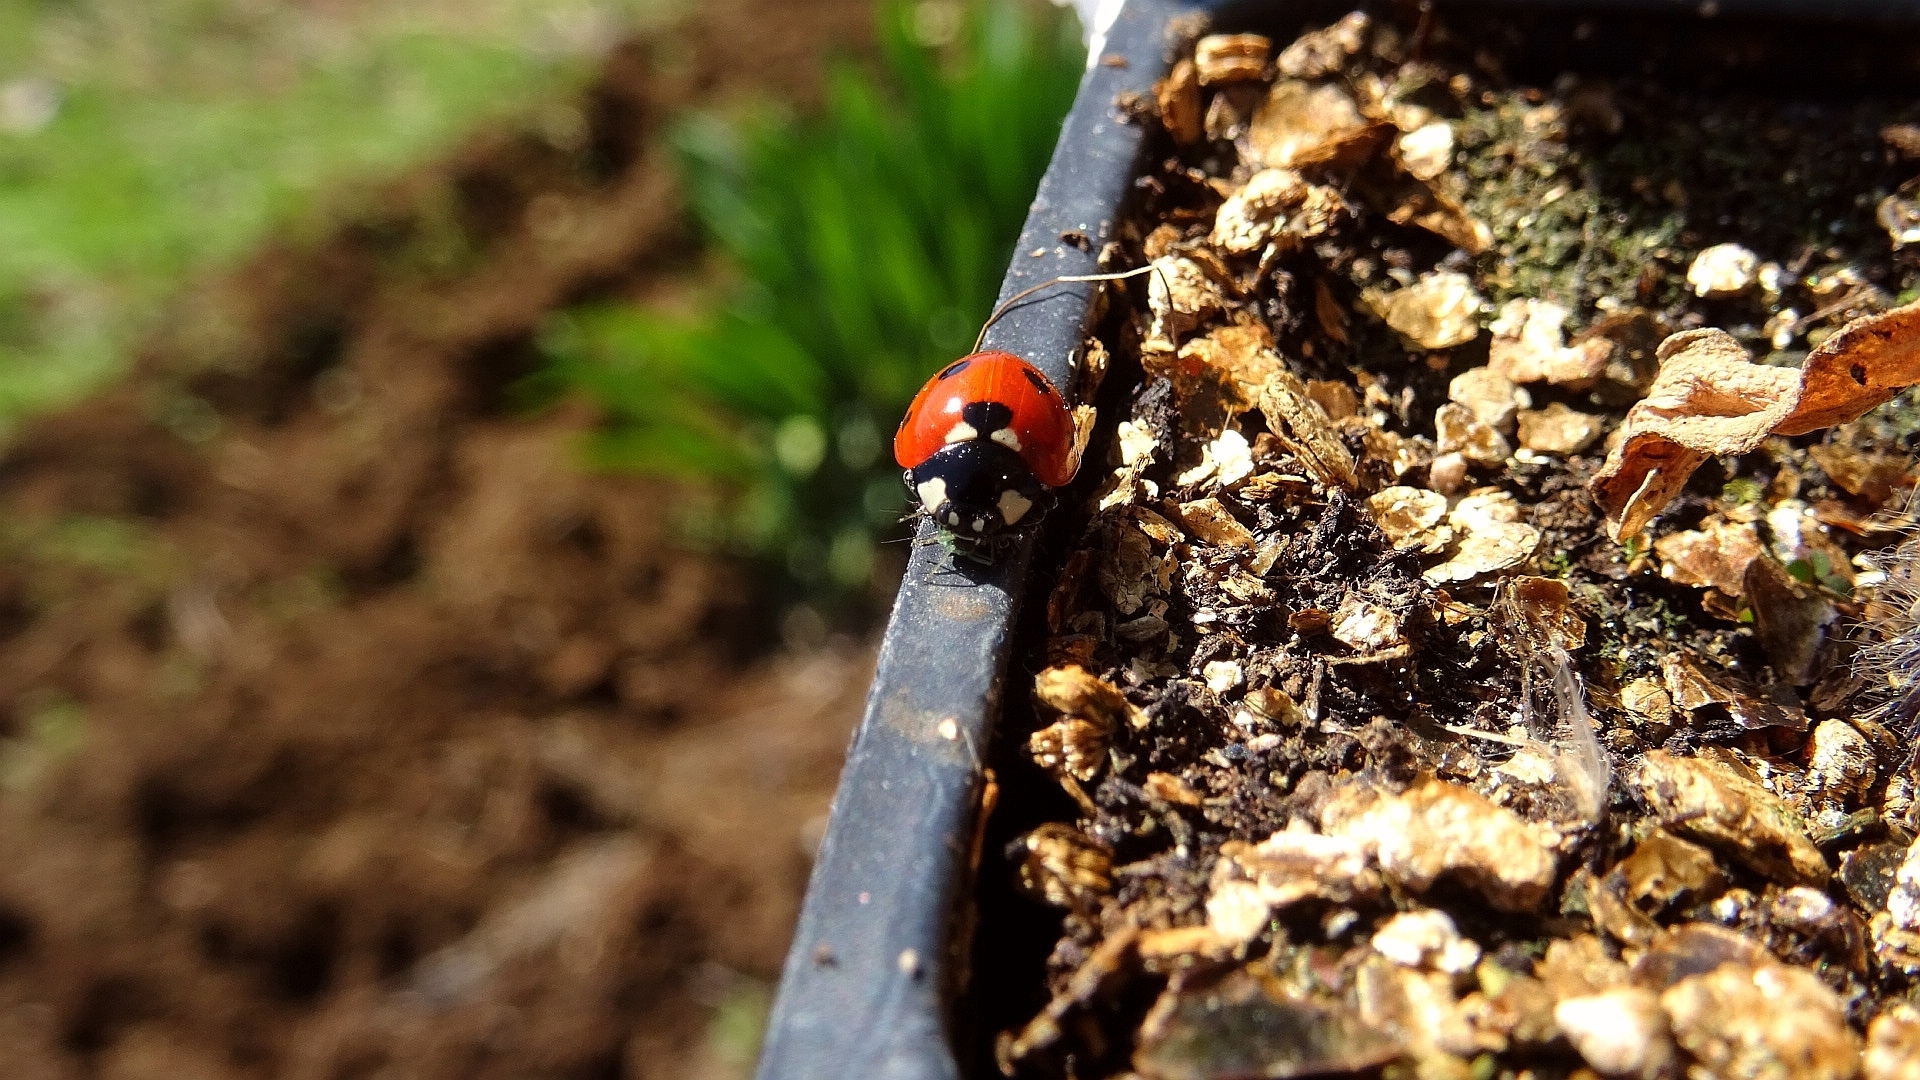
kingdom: Animalia
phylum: Arthropoda
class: Insecta
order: Coleoptera
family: Coccinellidae
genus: Coccinella
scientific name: Coccinella septempunctata
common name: Sevenspotted lady beetle
